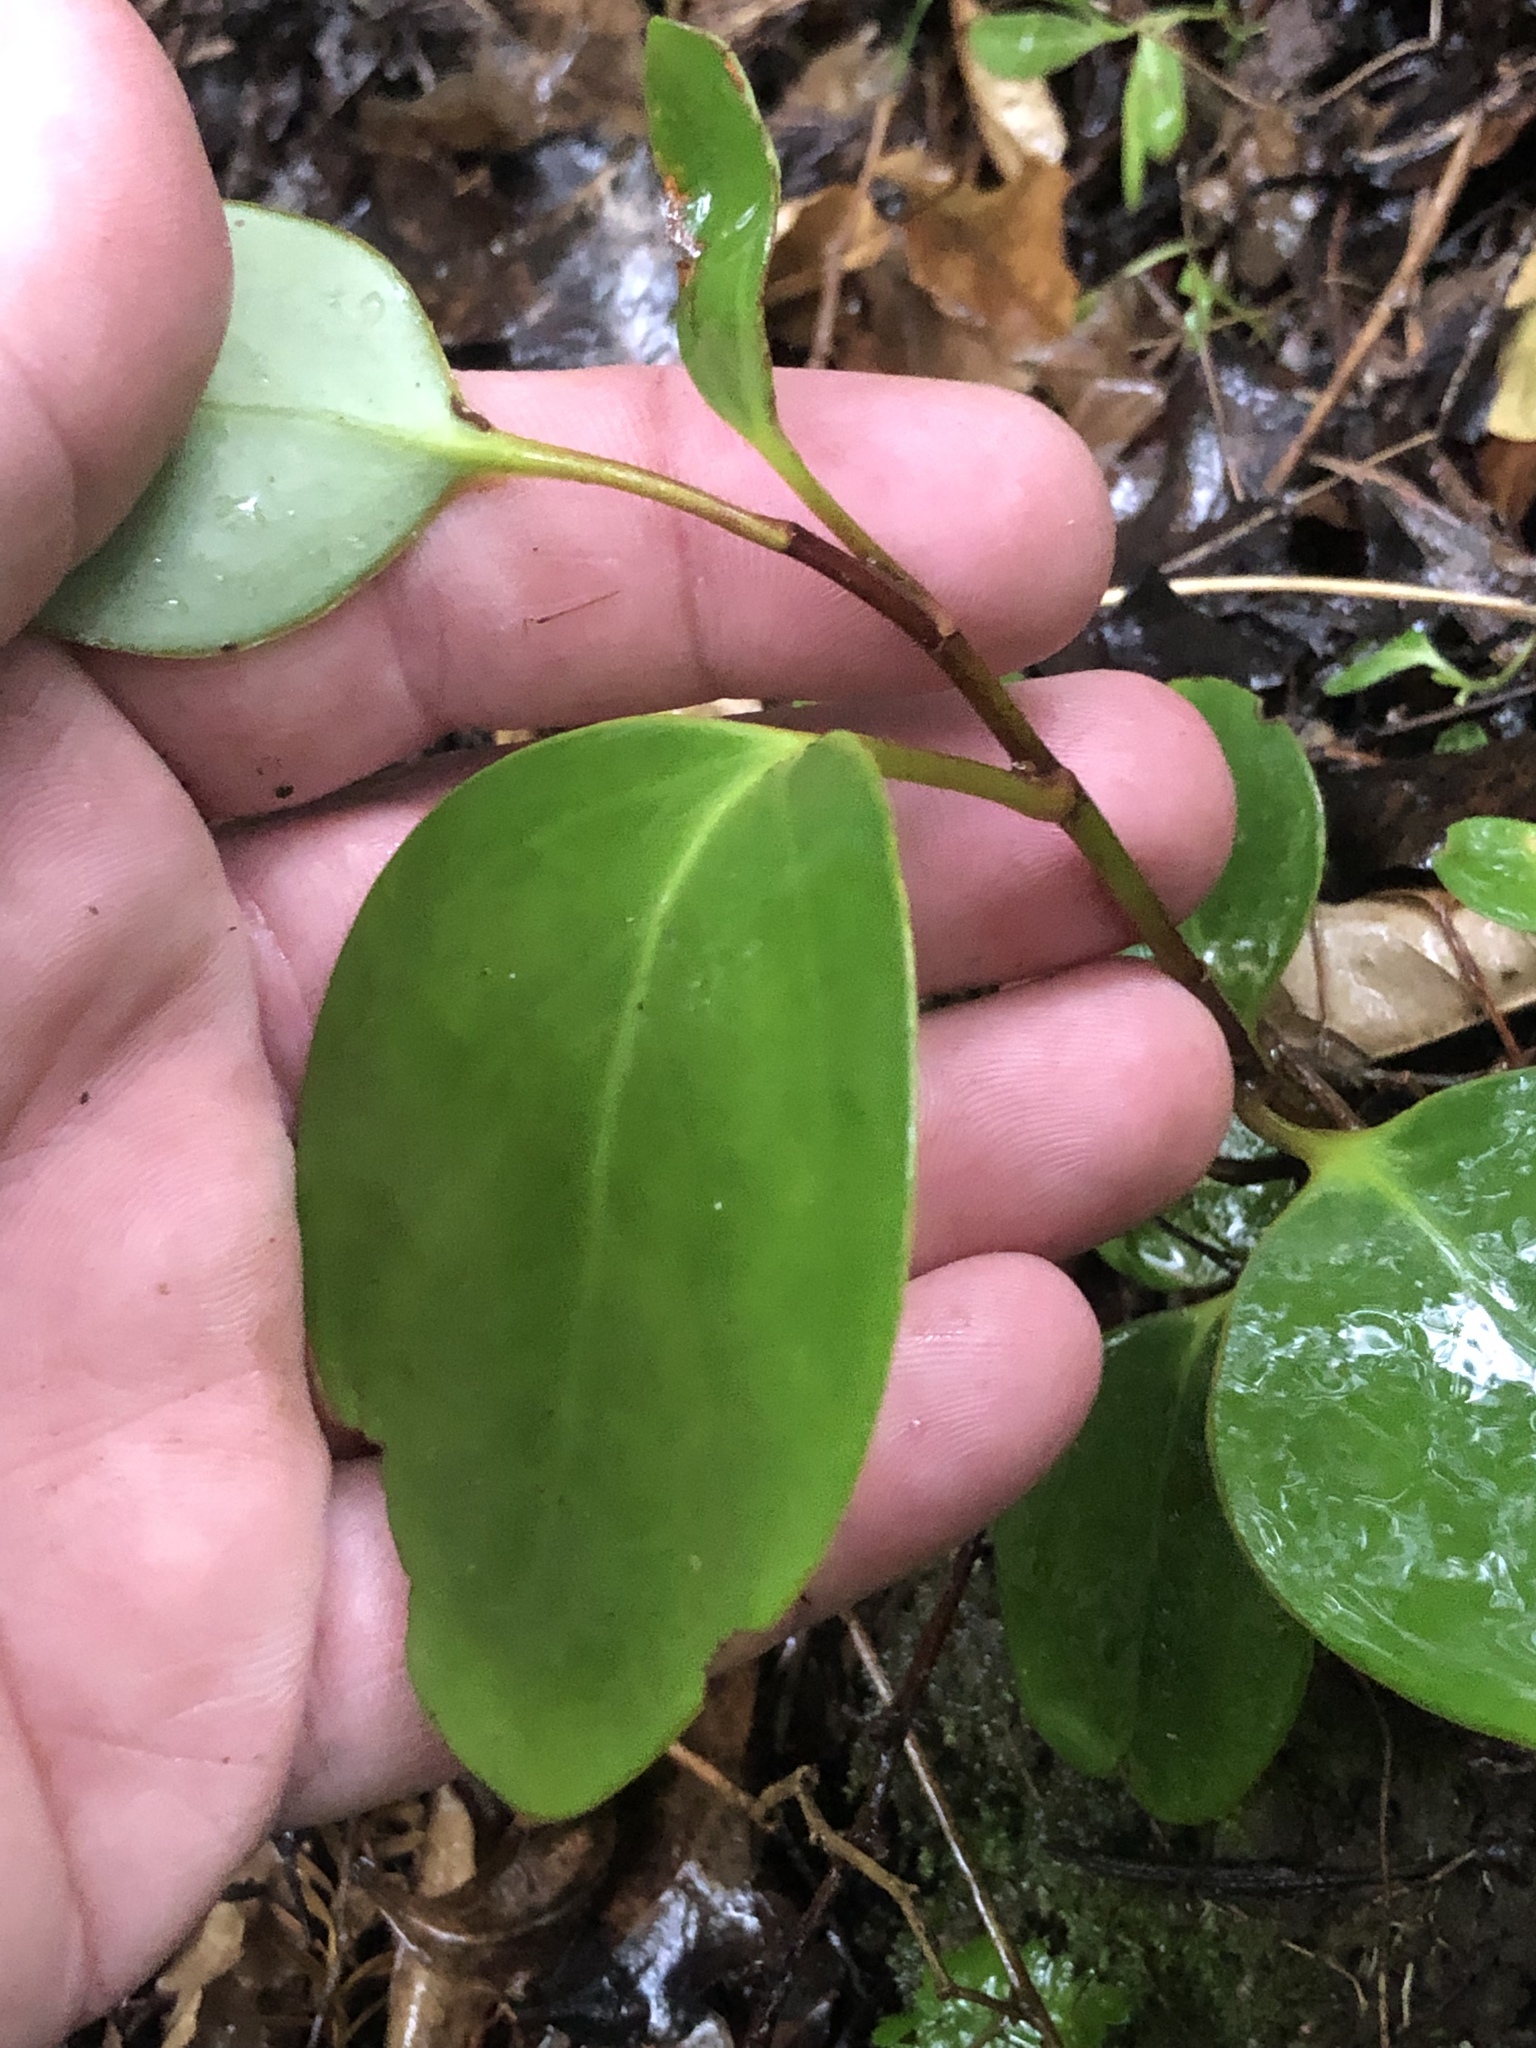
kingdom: Plantae
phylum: Tracheophyta
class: Magnoliopsida
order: Apiales
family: Griseliniaceae
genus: Griselinia
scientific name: Griselinia littoralis
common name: New zealand broadleaf
